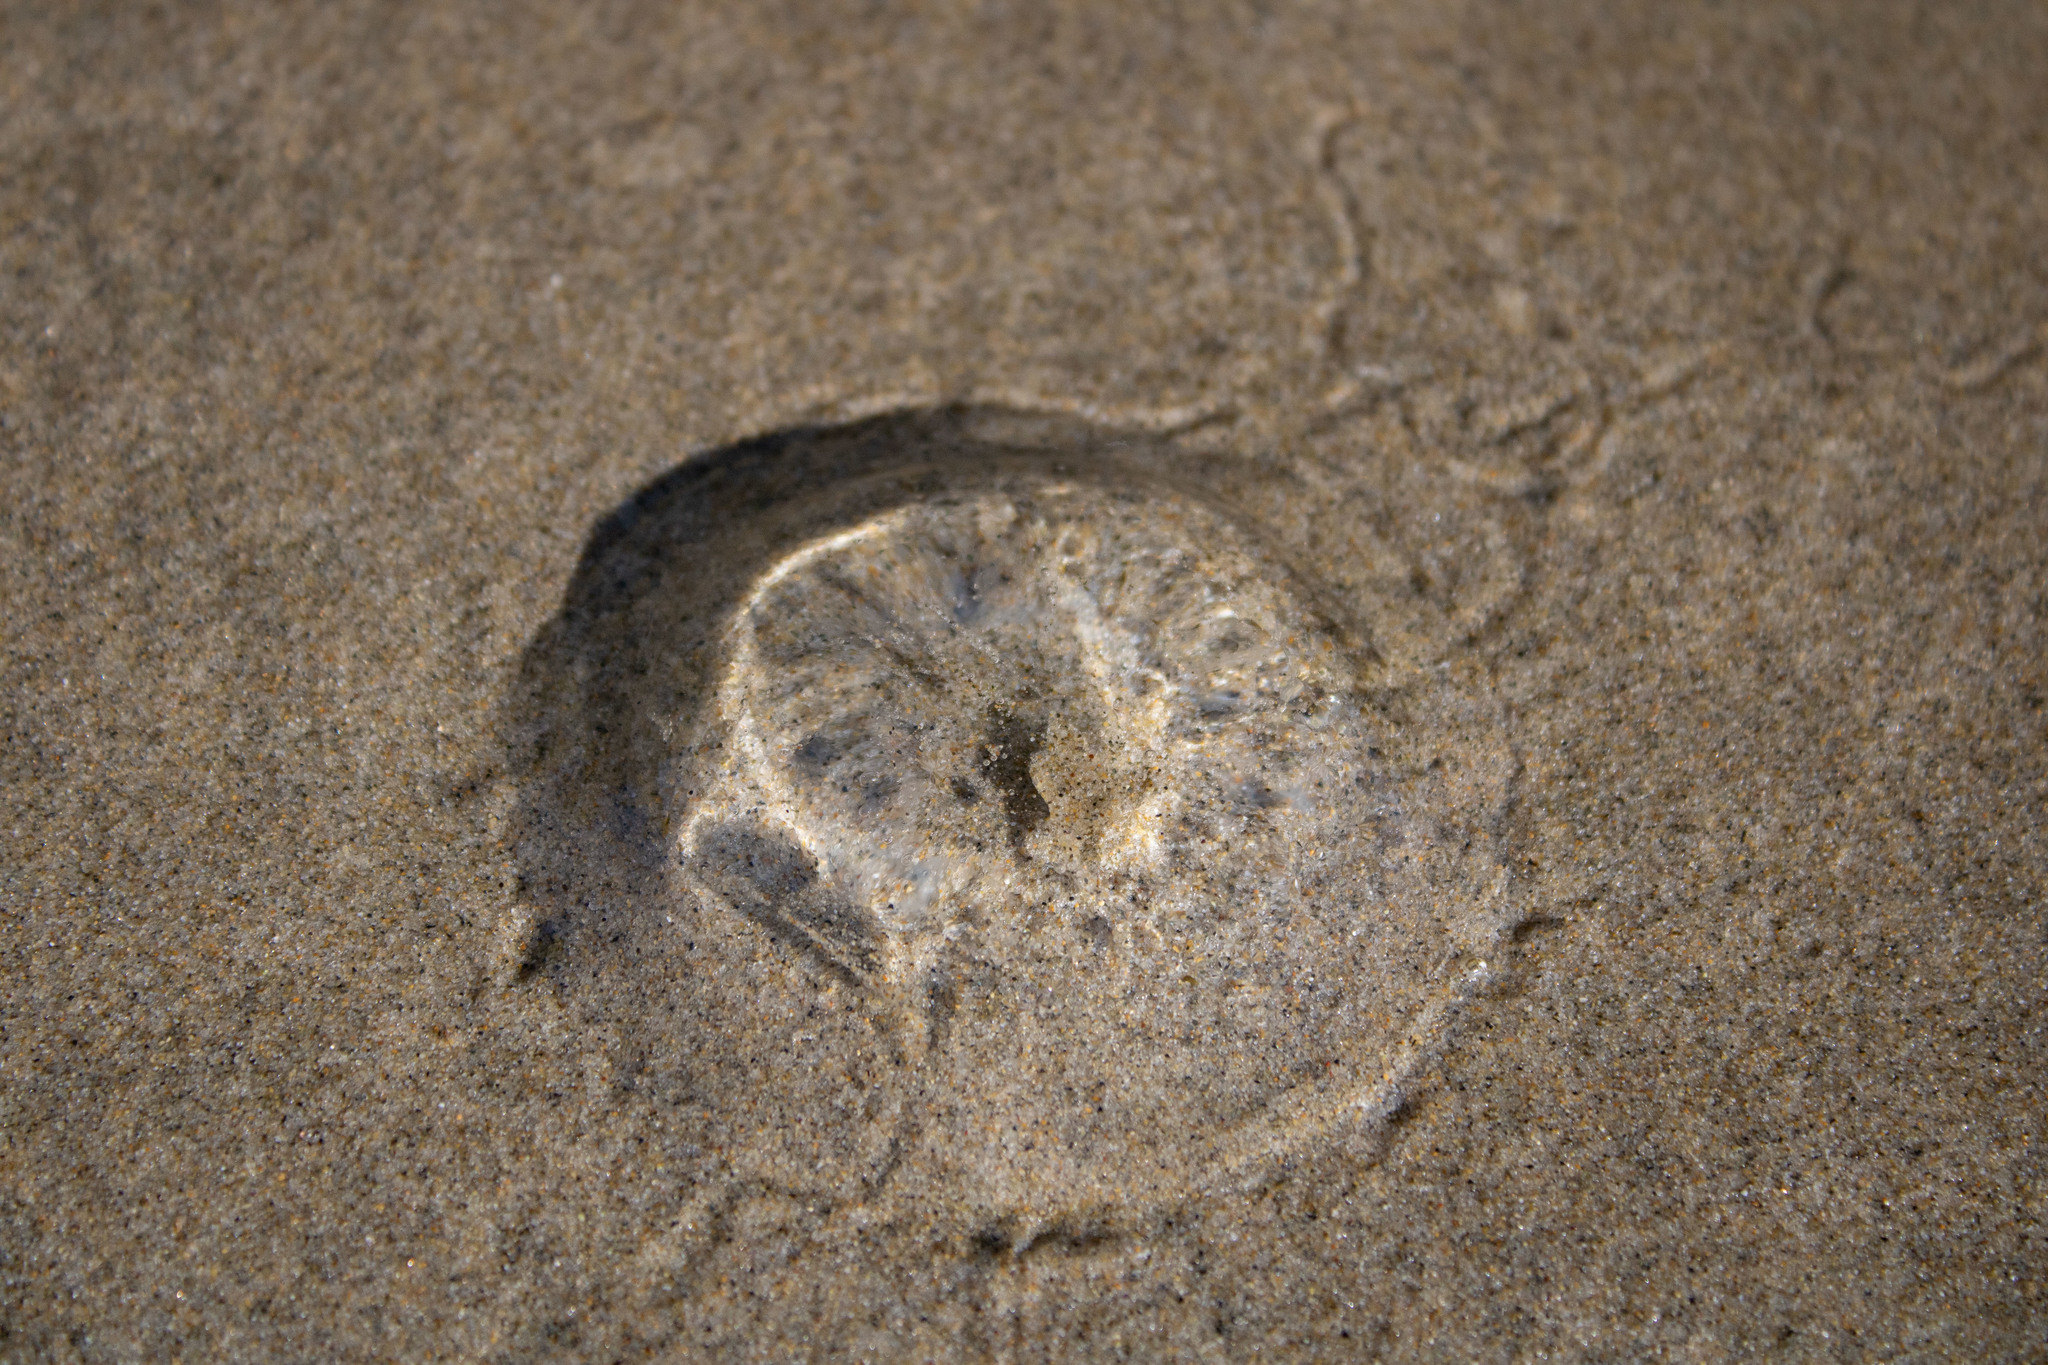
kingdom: Animalia
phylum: Cnidaria
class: Hydrozoa
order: Leptothecata
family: Aequoreidae
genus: Aequorea
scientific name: Aequorea victoria
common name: Water jellyfish
